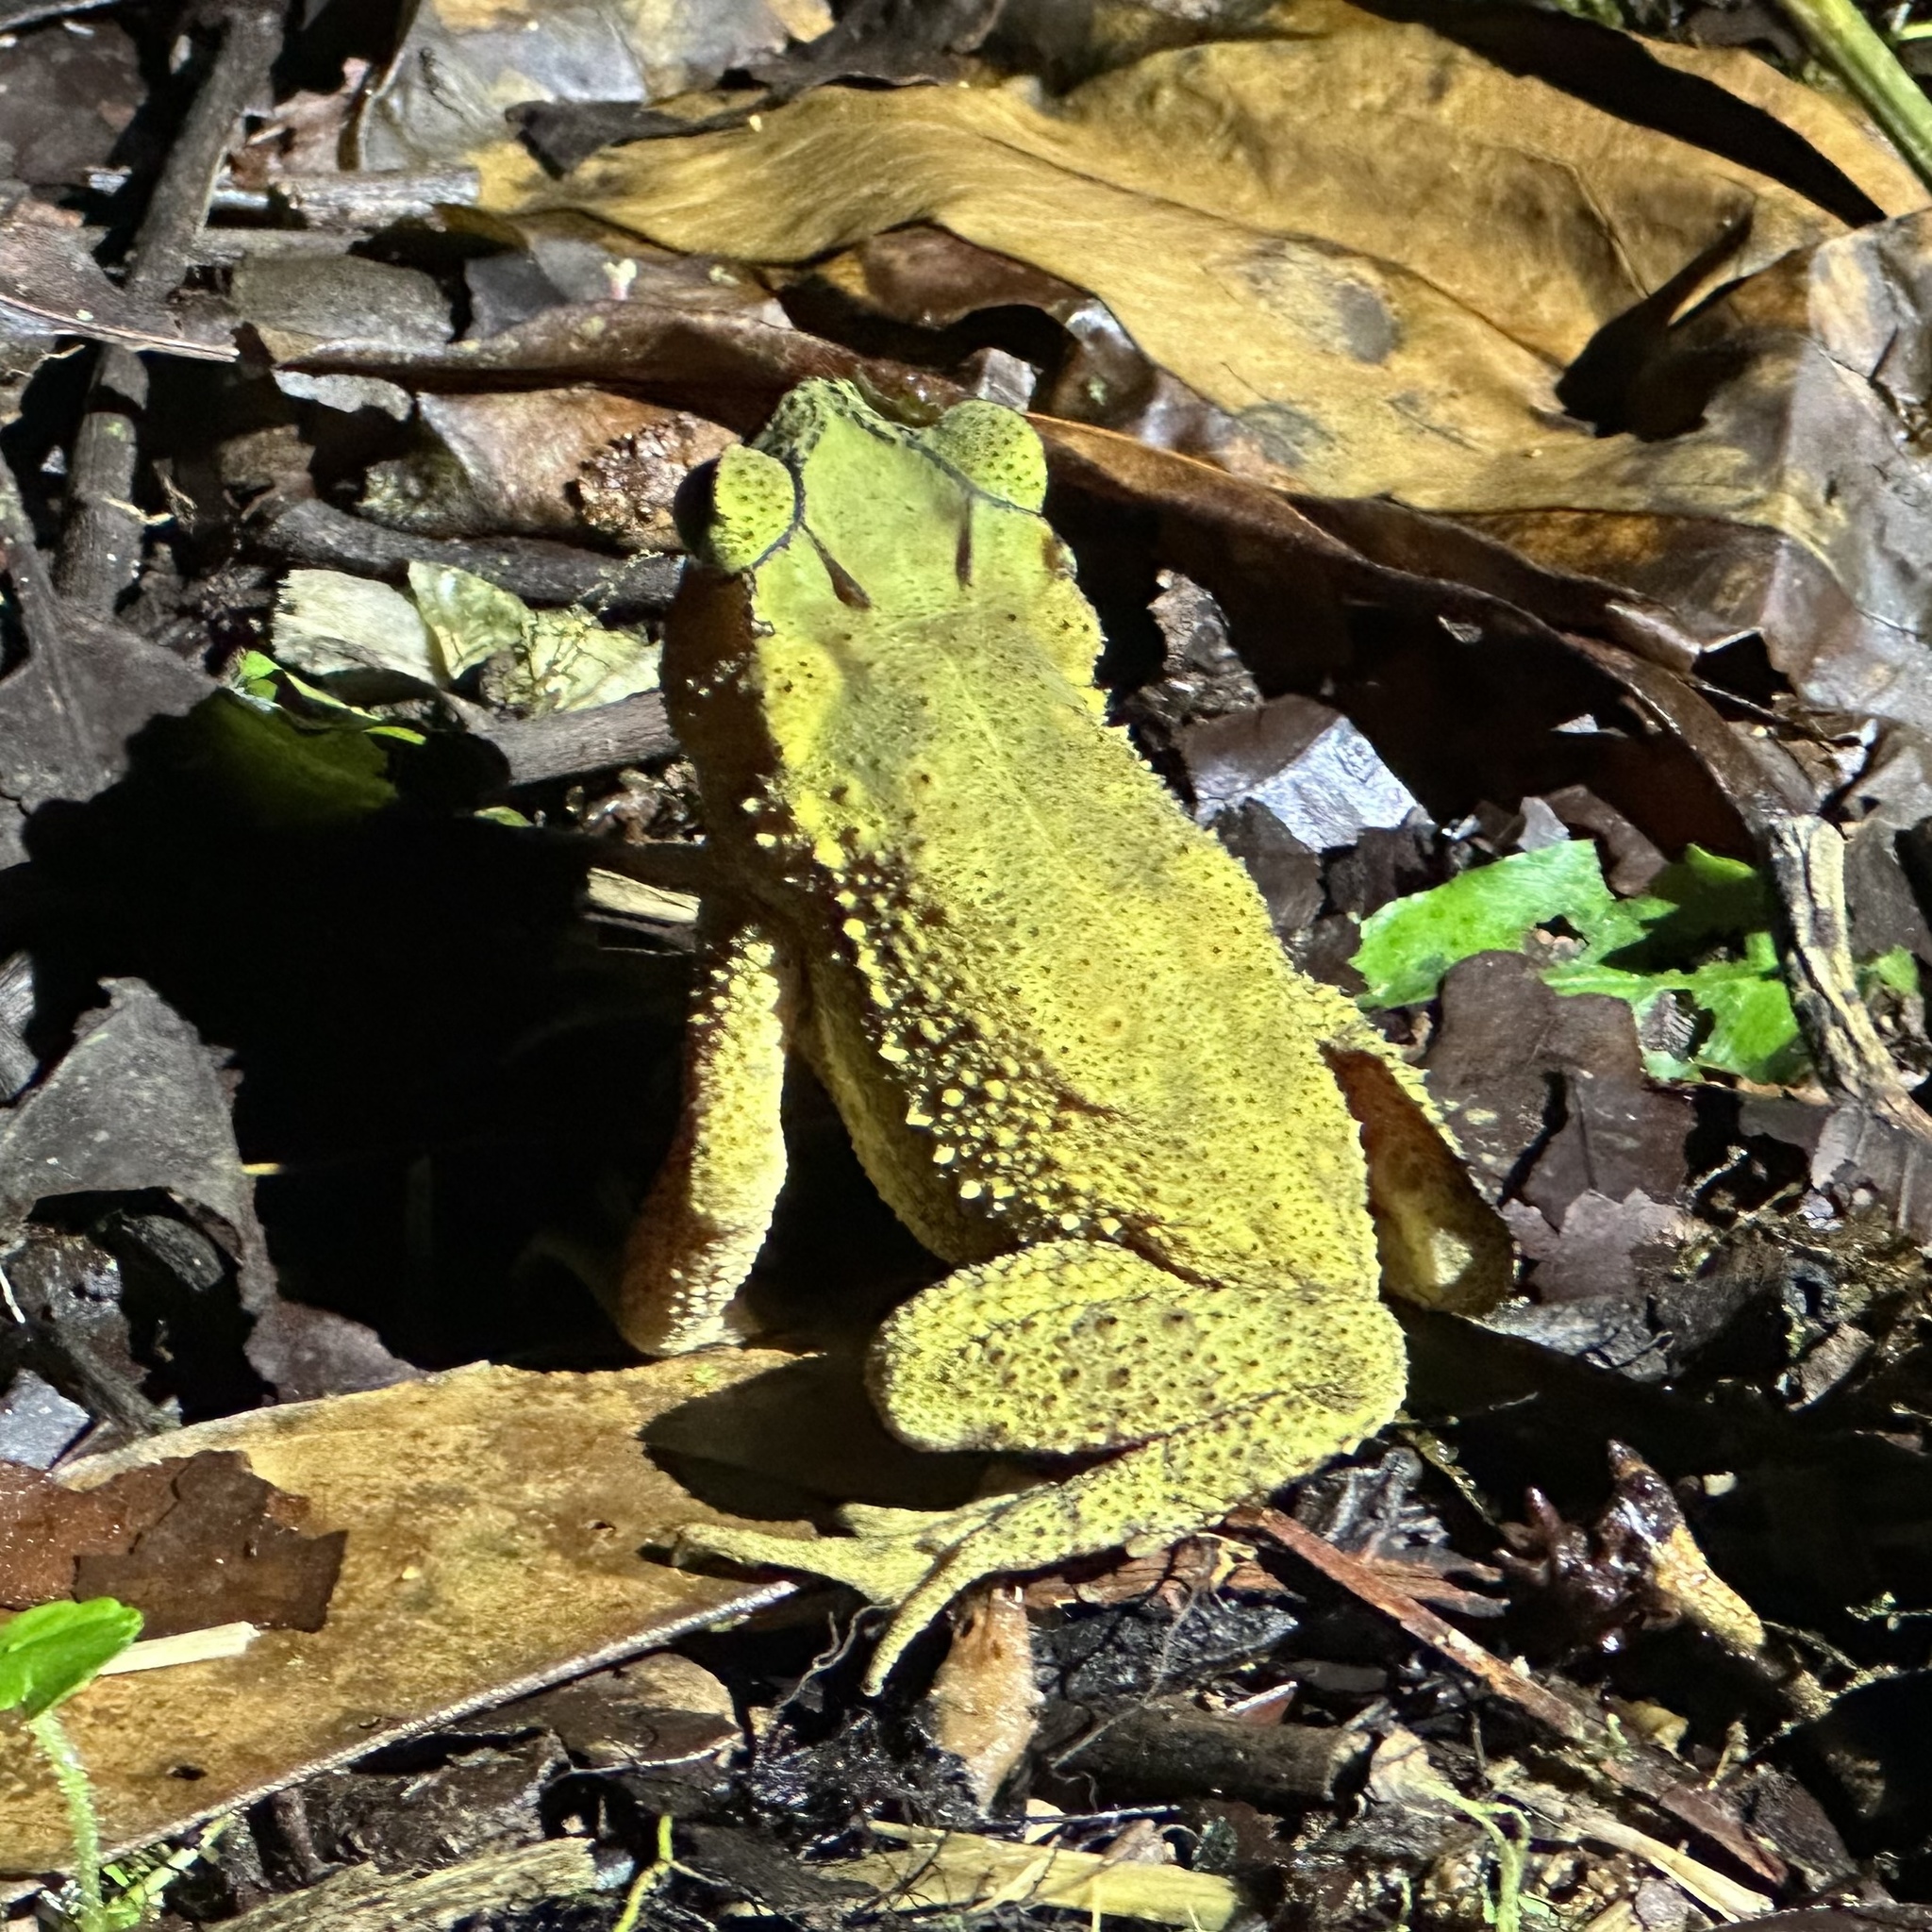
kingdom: Animalia
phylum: Chordata
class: Amphibia
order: Anura
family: Bufonidae
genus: Incilius
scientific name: Incilius coniferus
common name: Evergreen toad
